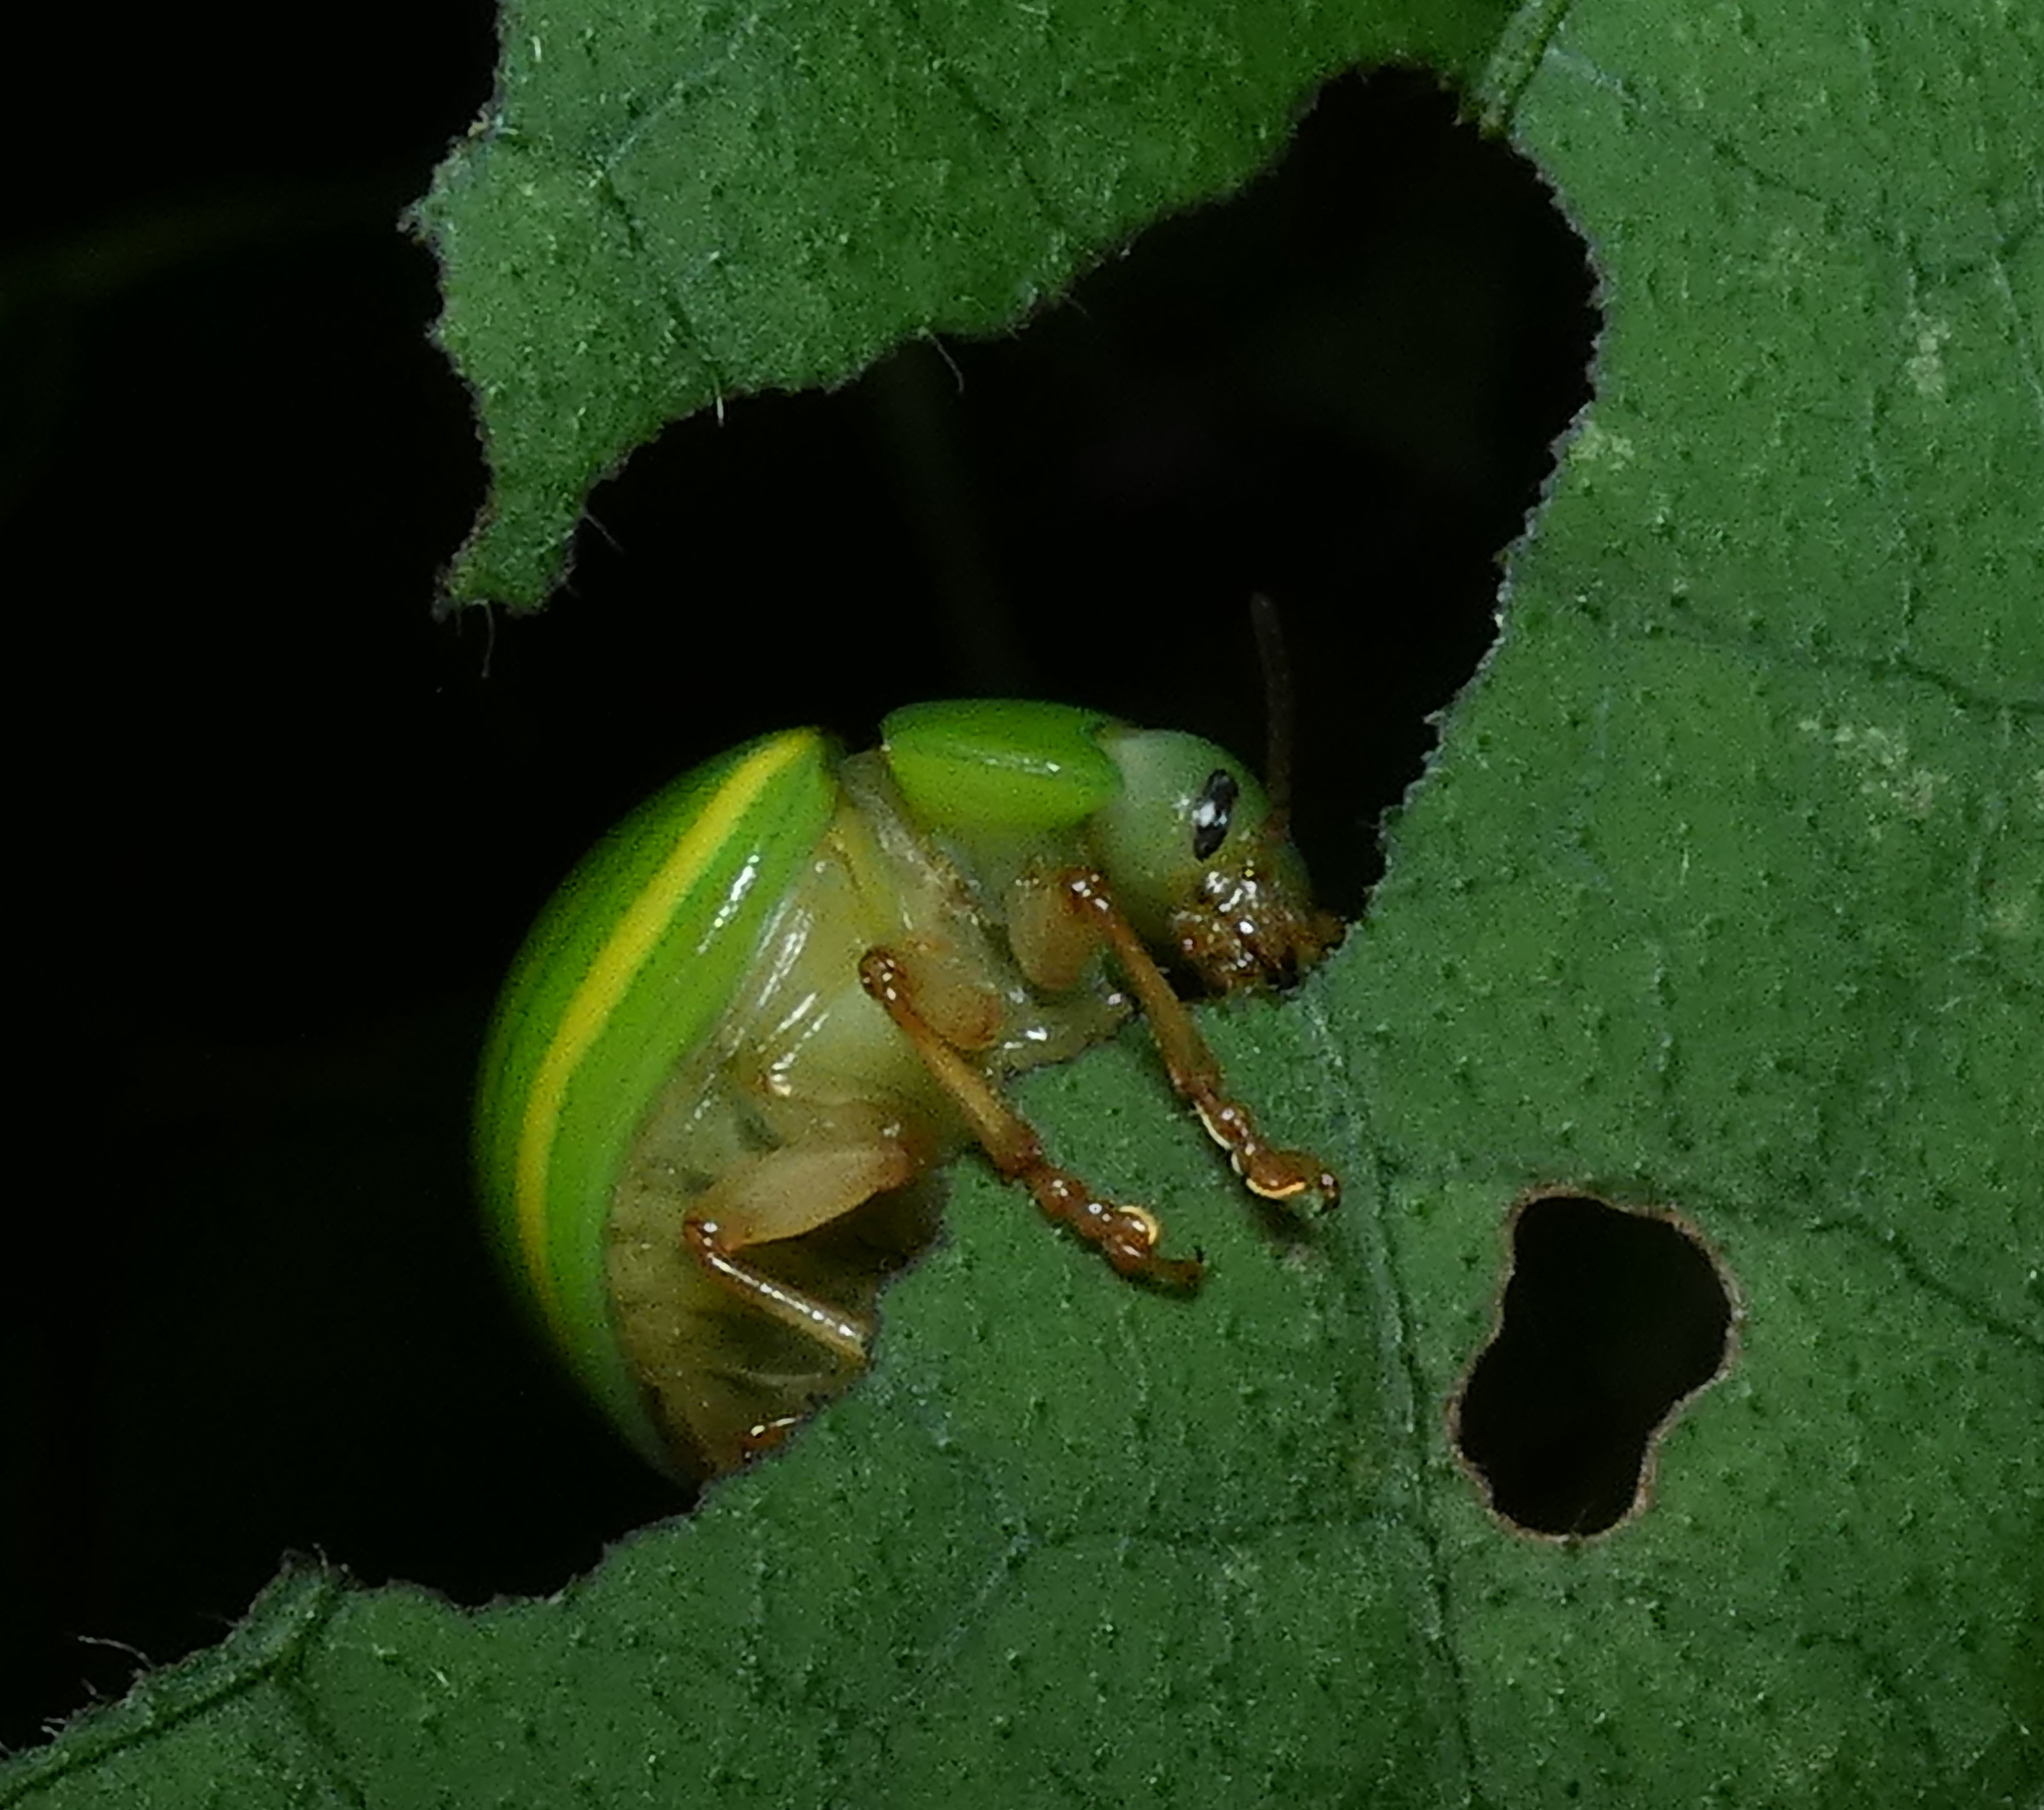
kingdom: Animalia
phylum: Arthropoda
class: Insecta
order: Coleoptera
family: Chrysomelidae
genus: Platyphora
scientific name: Platyphora
